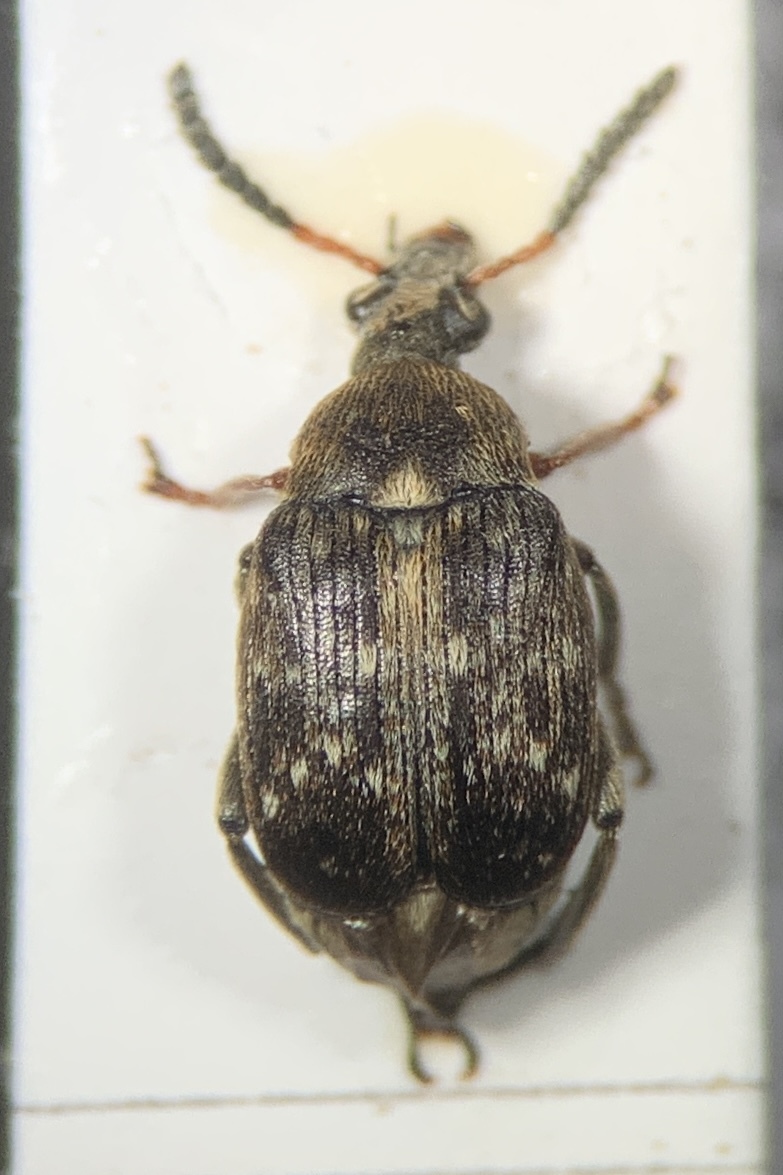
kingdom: Animalia
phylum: Arthropoda
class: Insecta
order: Coleoptera
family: Chrysomelidae
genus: Bruchus
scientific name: Bruchus rufimanus
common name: Broadbean weevil
